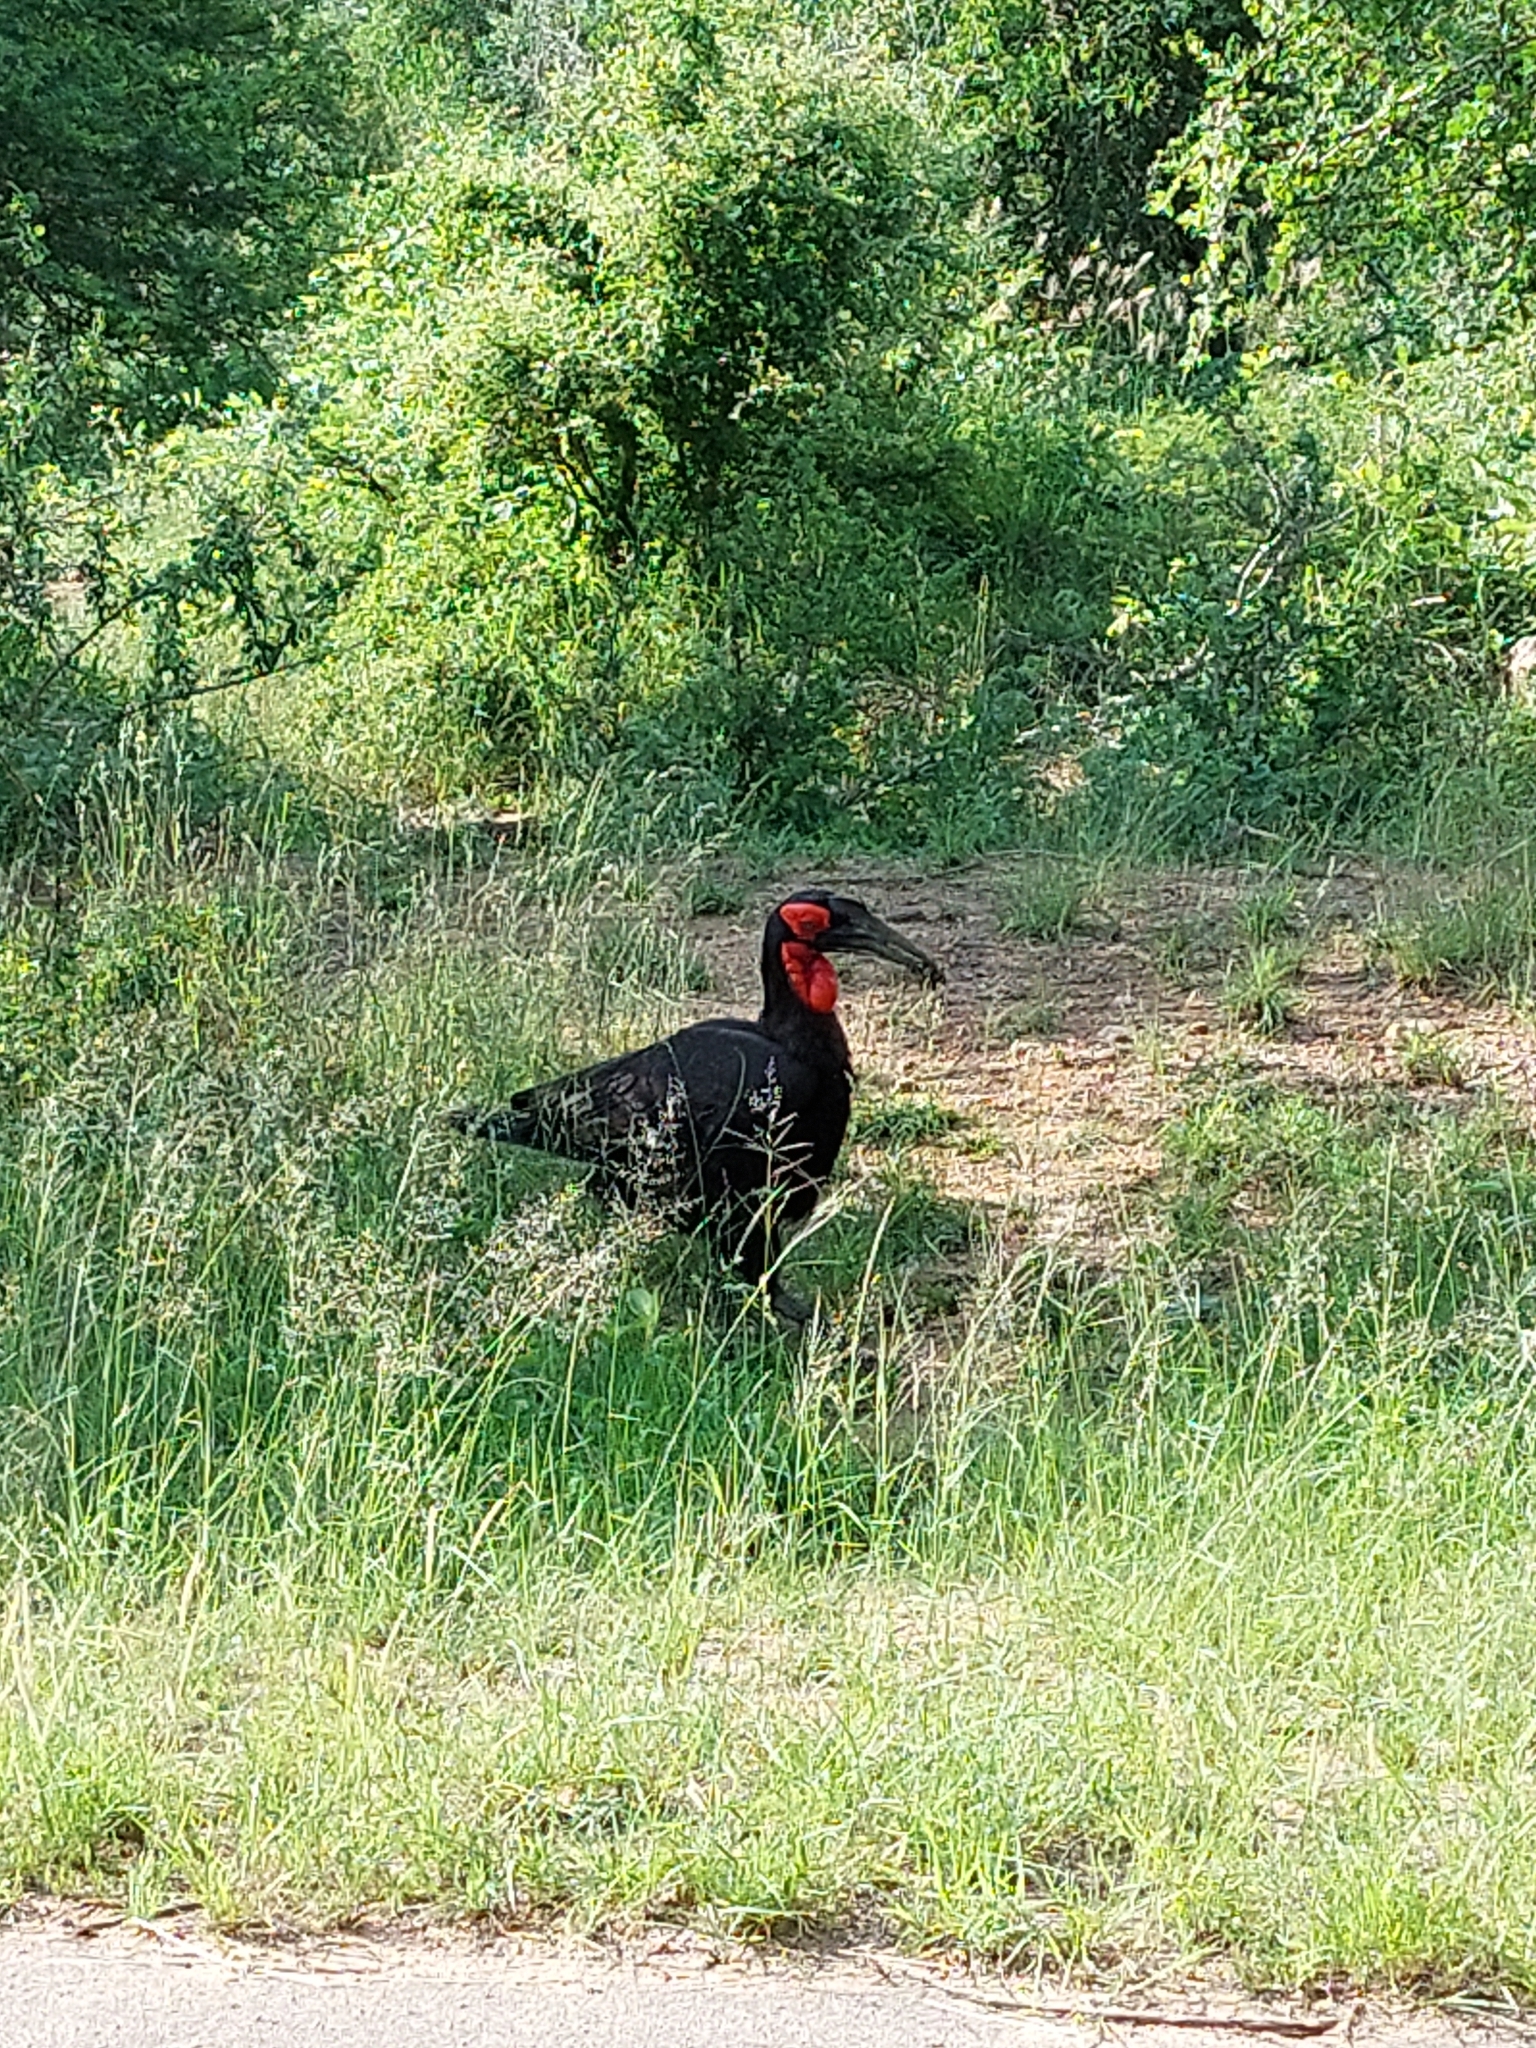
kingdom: Animalia
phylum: Chordata
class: Aves
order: Bucerotiformes
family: Bucorvidae
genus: Bucorvus
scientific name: Bucorvus leadbeateri
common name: Southern ground-hornbill
